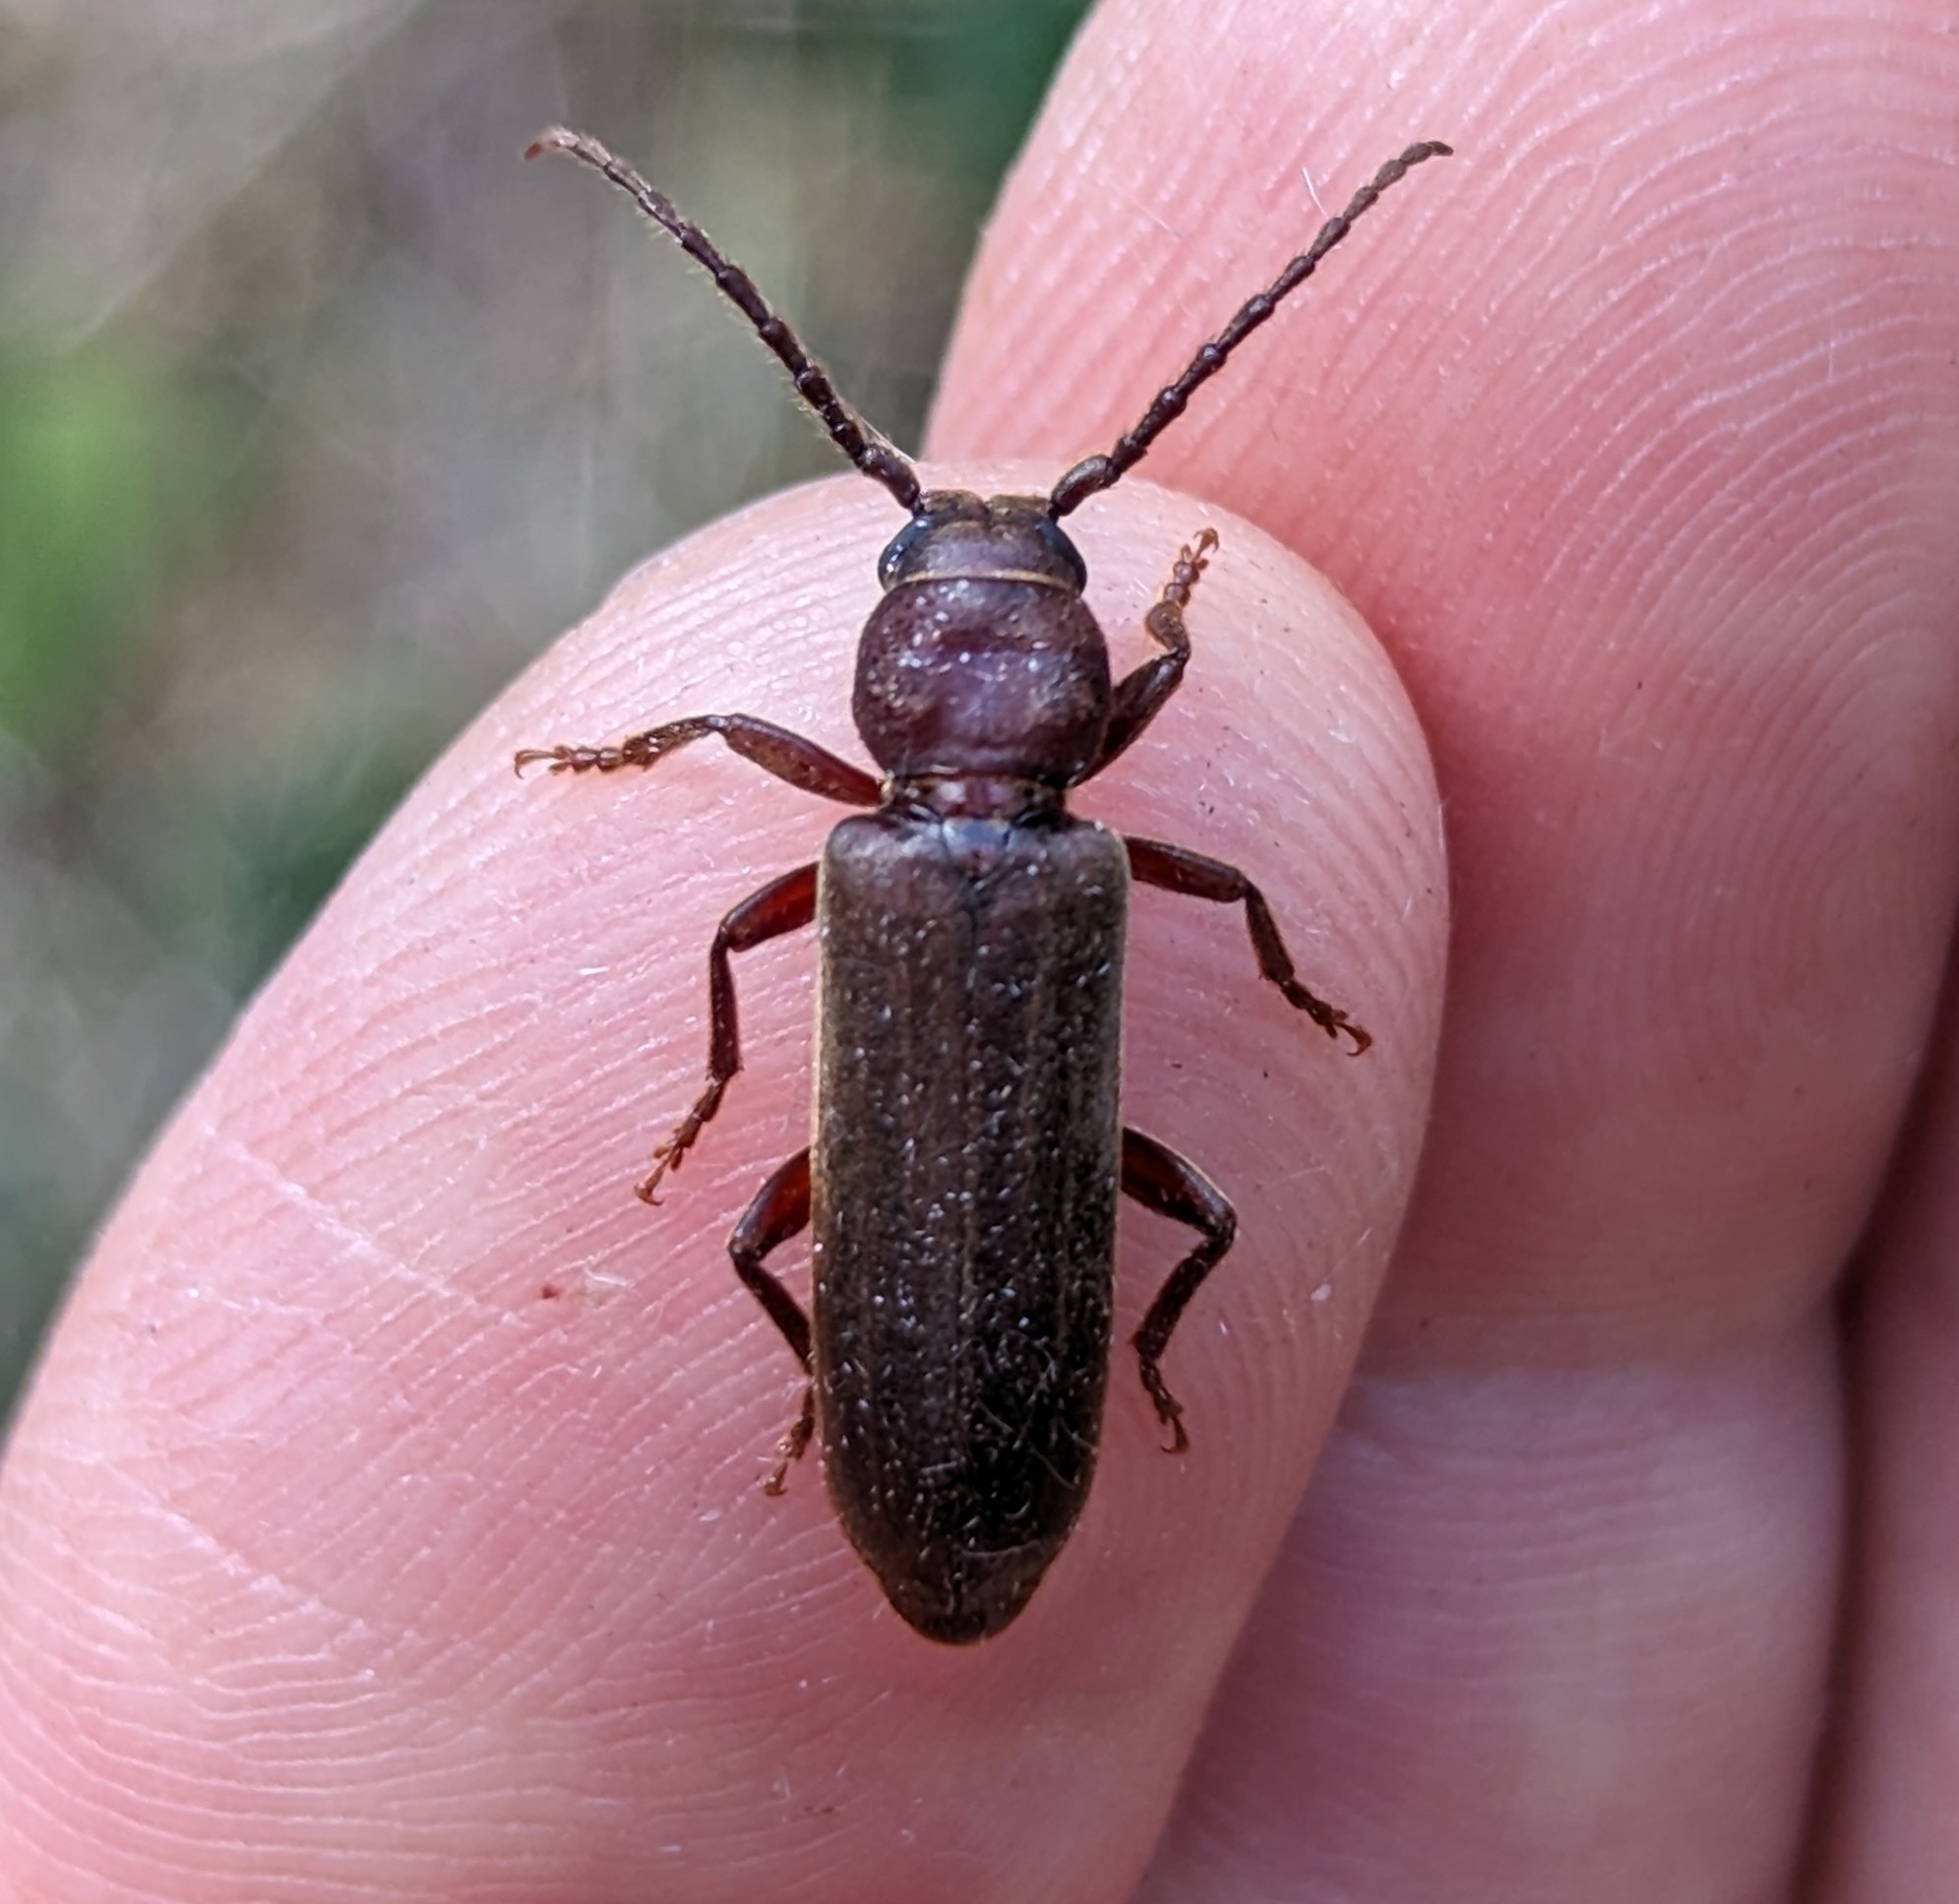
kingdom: Animalia
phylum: Arthropoda
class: Insecta
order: Coleoptera
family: Cerambycidae
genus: Megasemum
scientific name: Megasemum asperum
